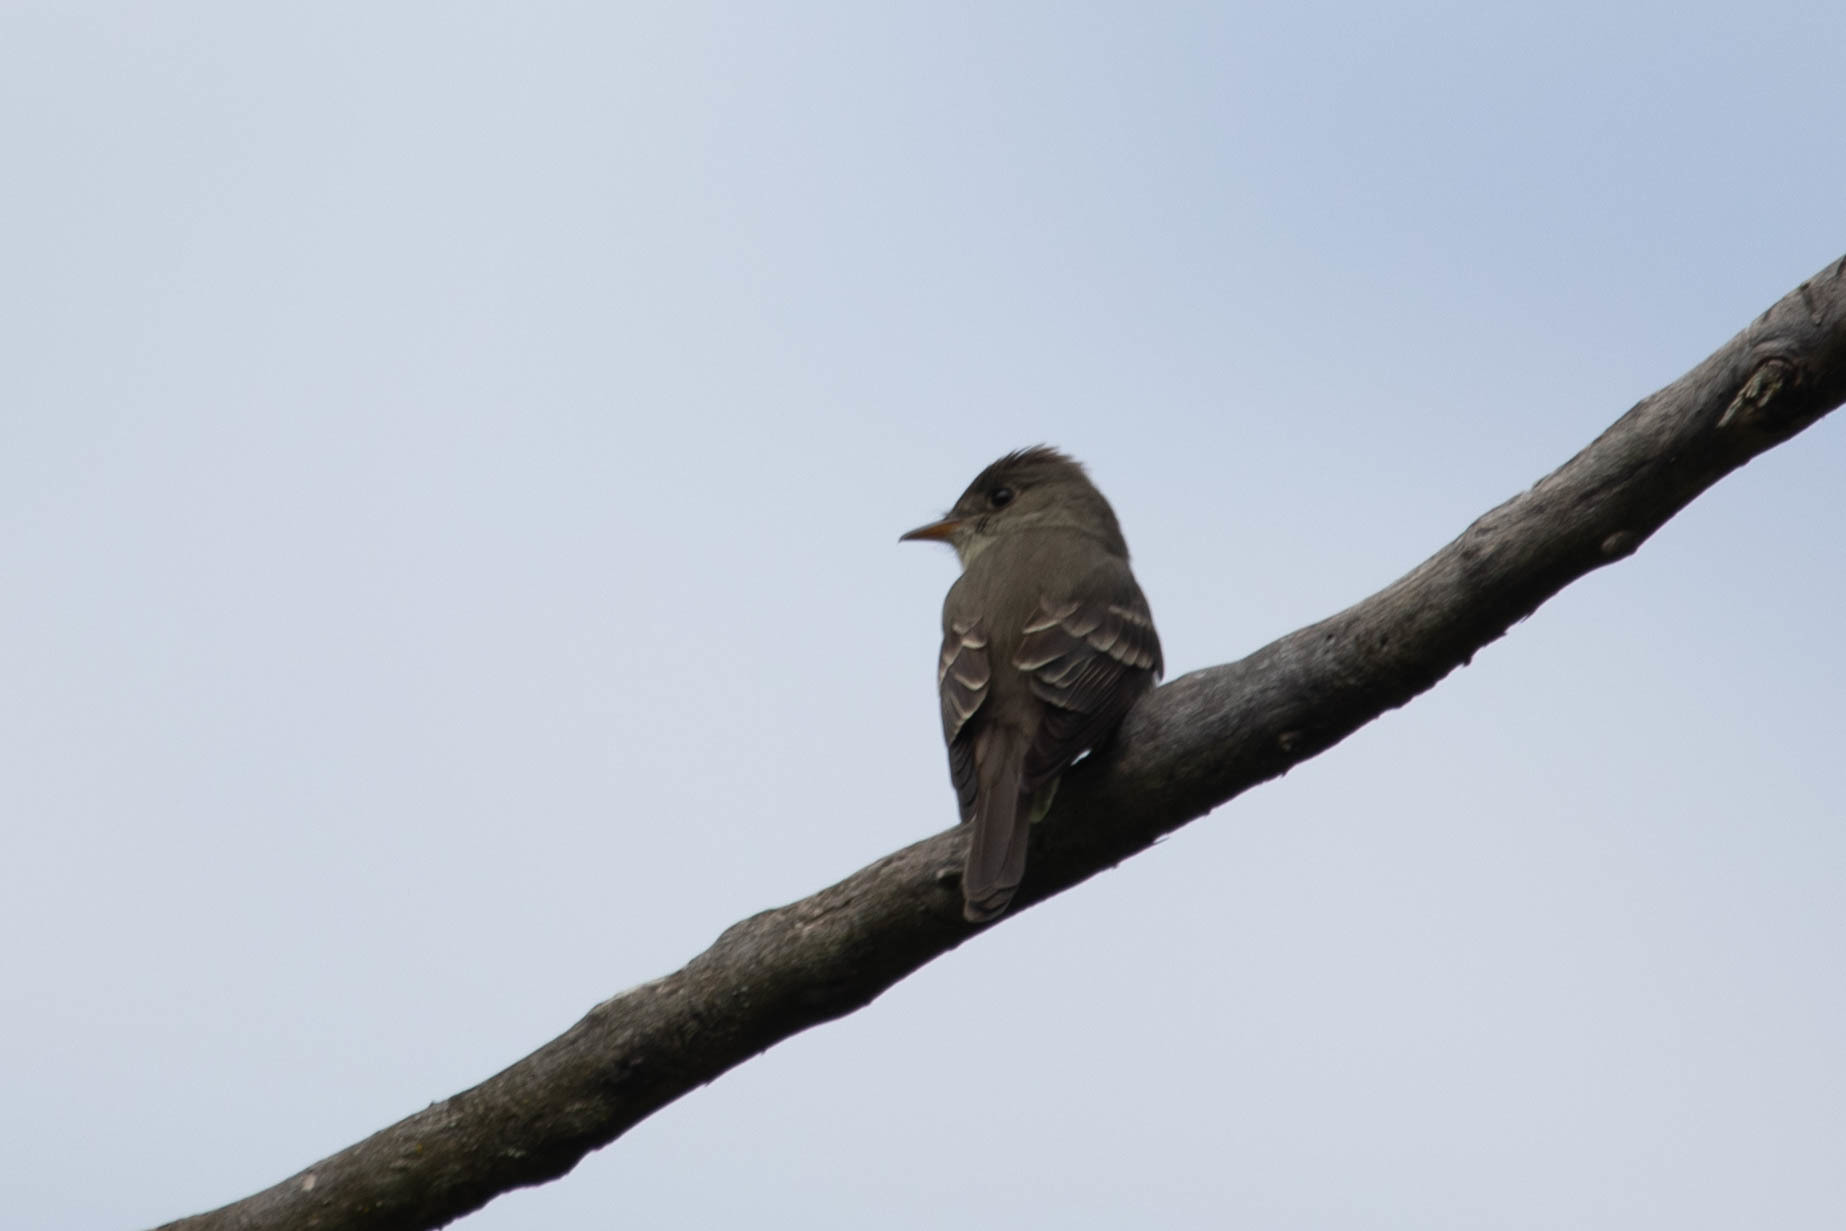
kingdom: Animalia
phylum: Chordata
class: Aves
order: Passeriformes
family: Tyrannidae
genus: Contopus
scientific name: Contopus virens
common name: Eastern wood-pewee
